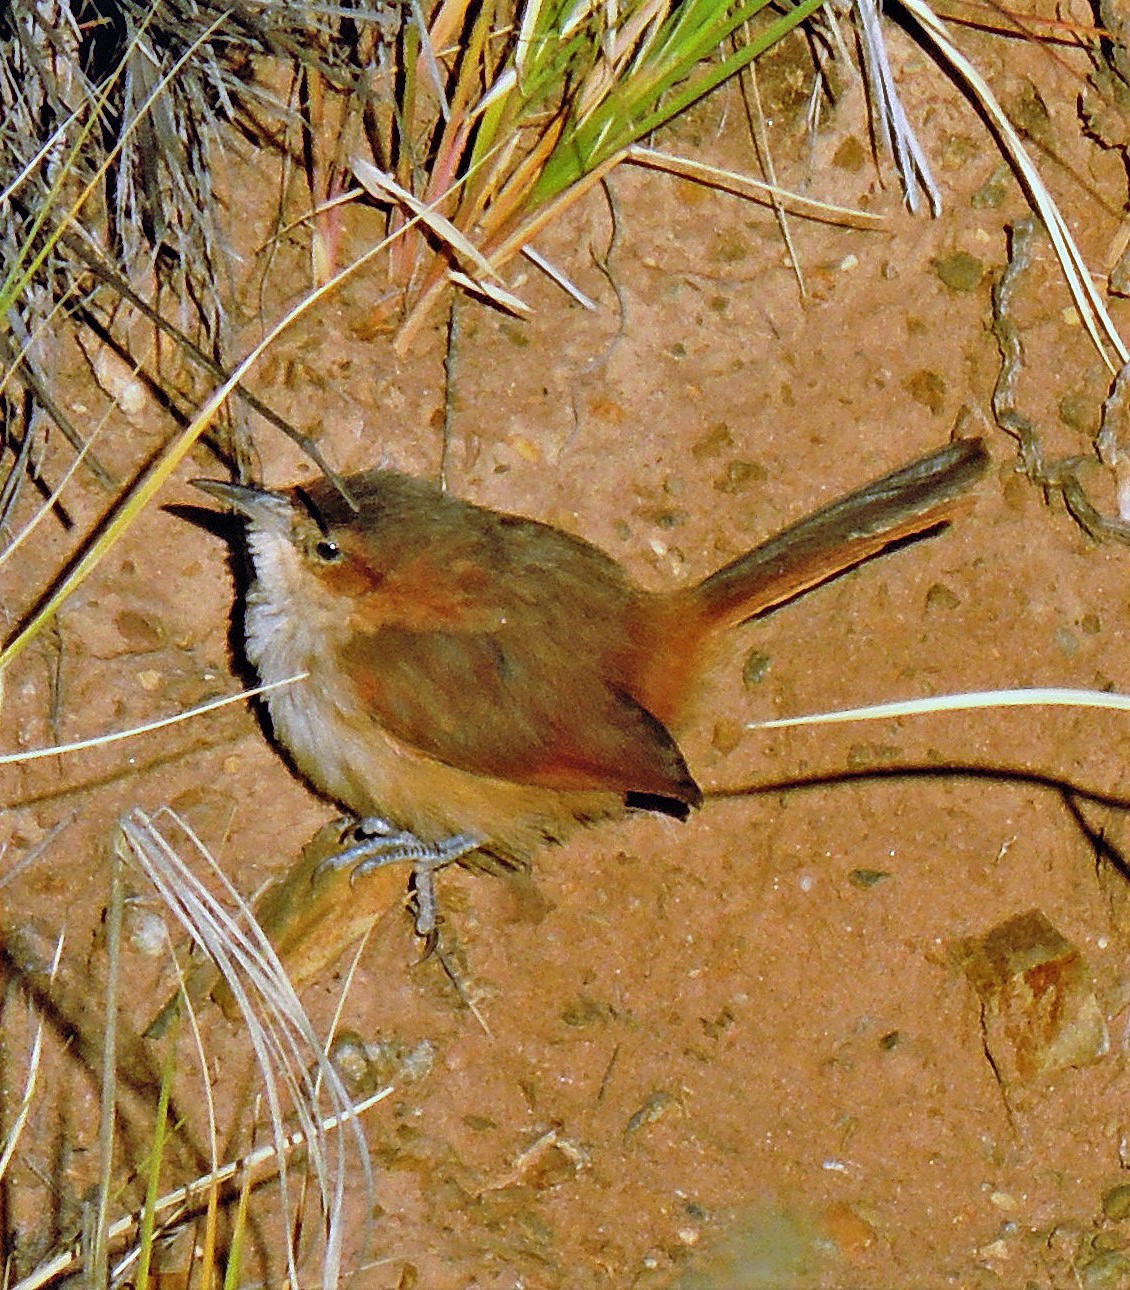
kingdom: Animalia
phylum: Chordata
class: Aves
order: Passeriformes
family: Furnariidae
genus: Phacellodomus
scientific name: Phacellodomus striaticeps
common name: Streak-fronted thornbird
